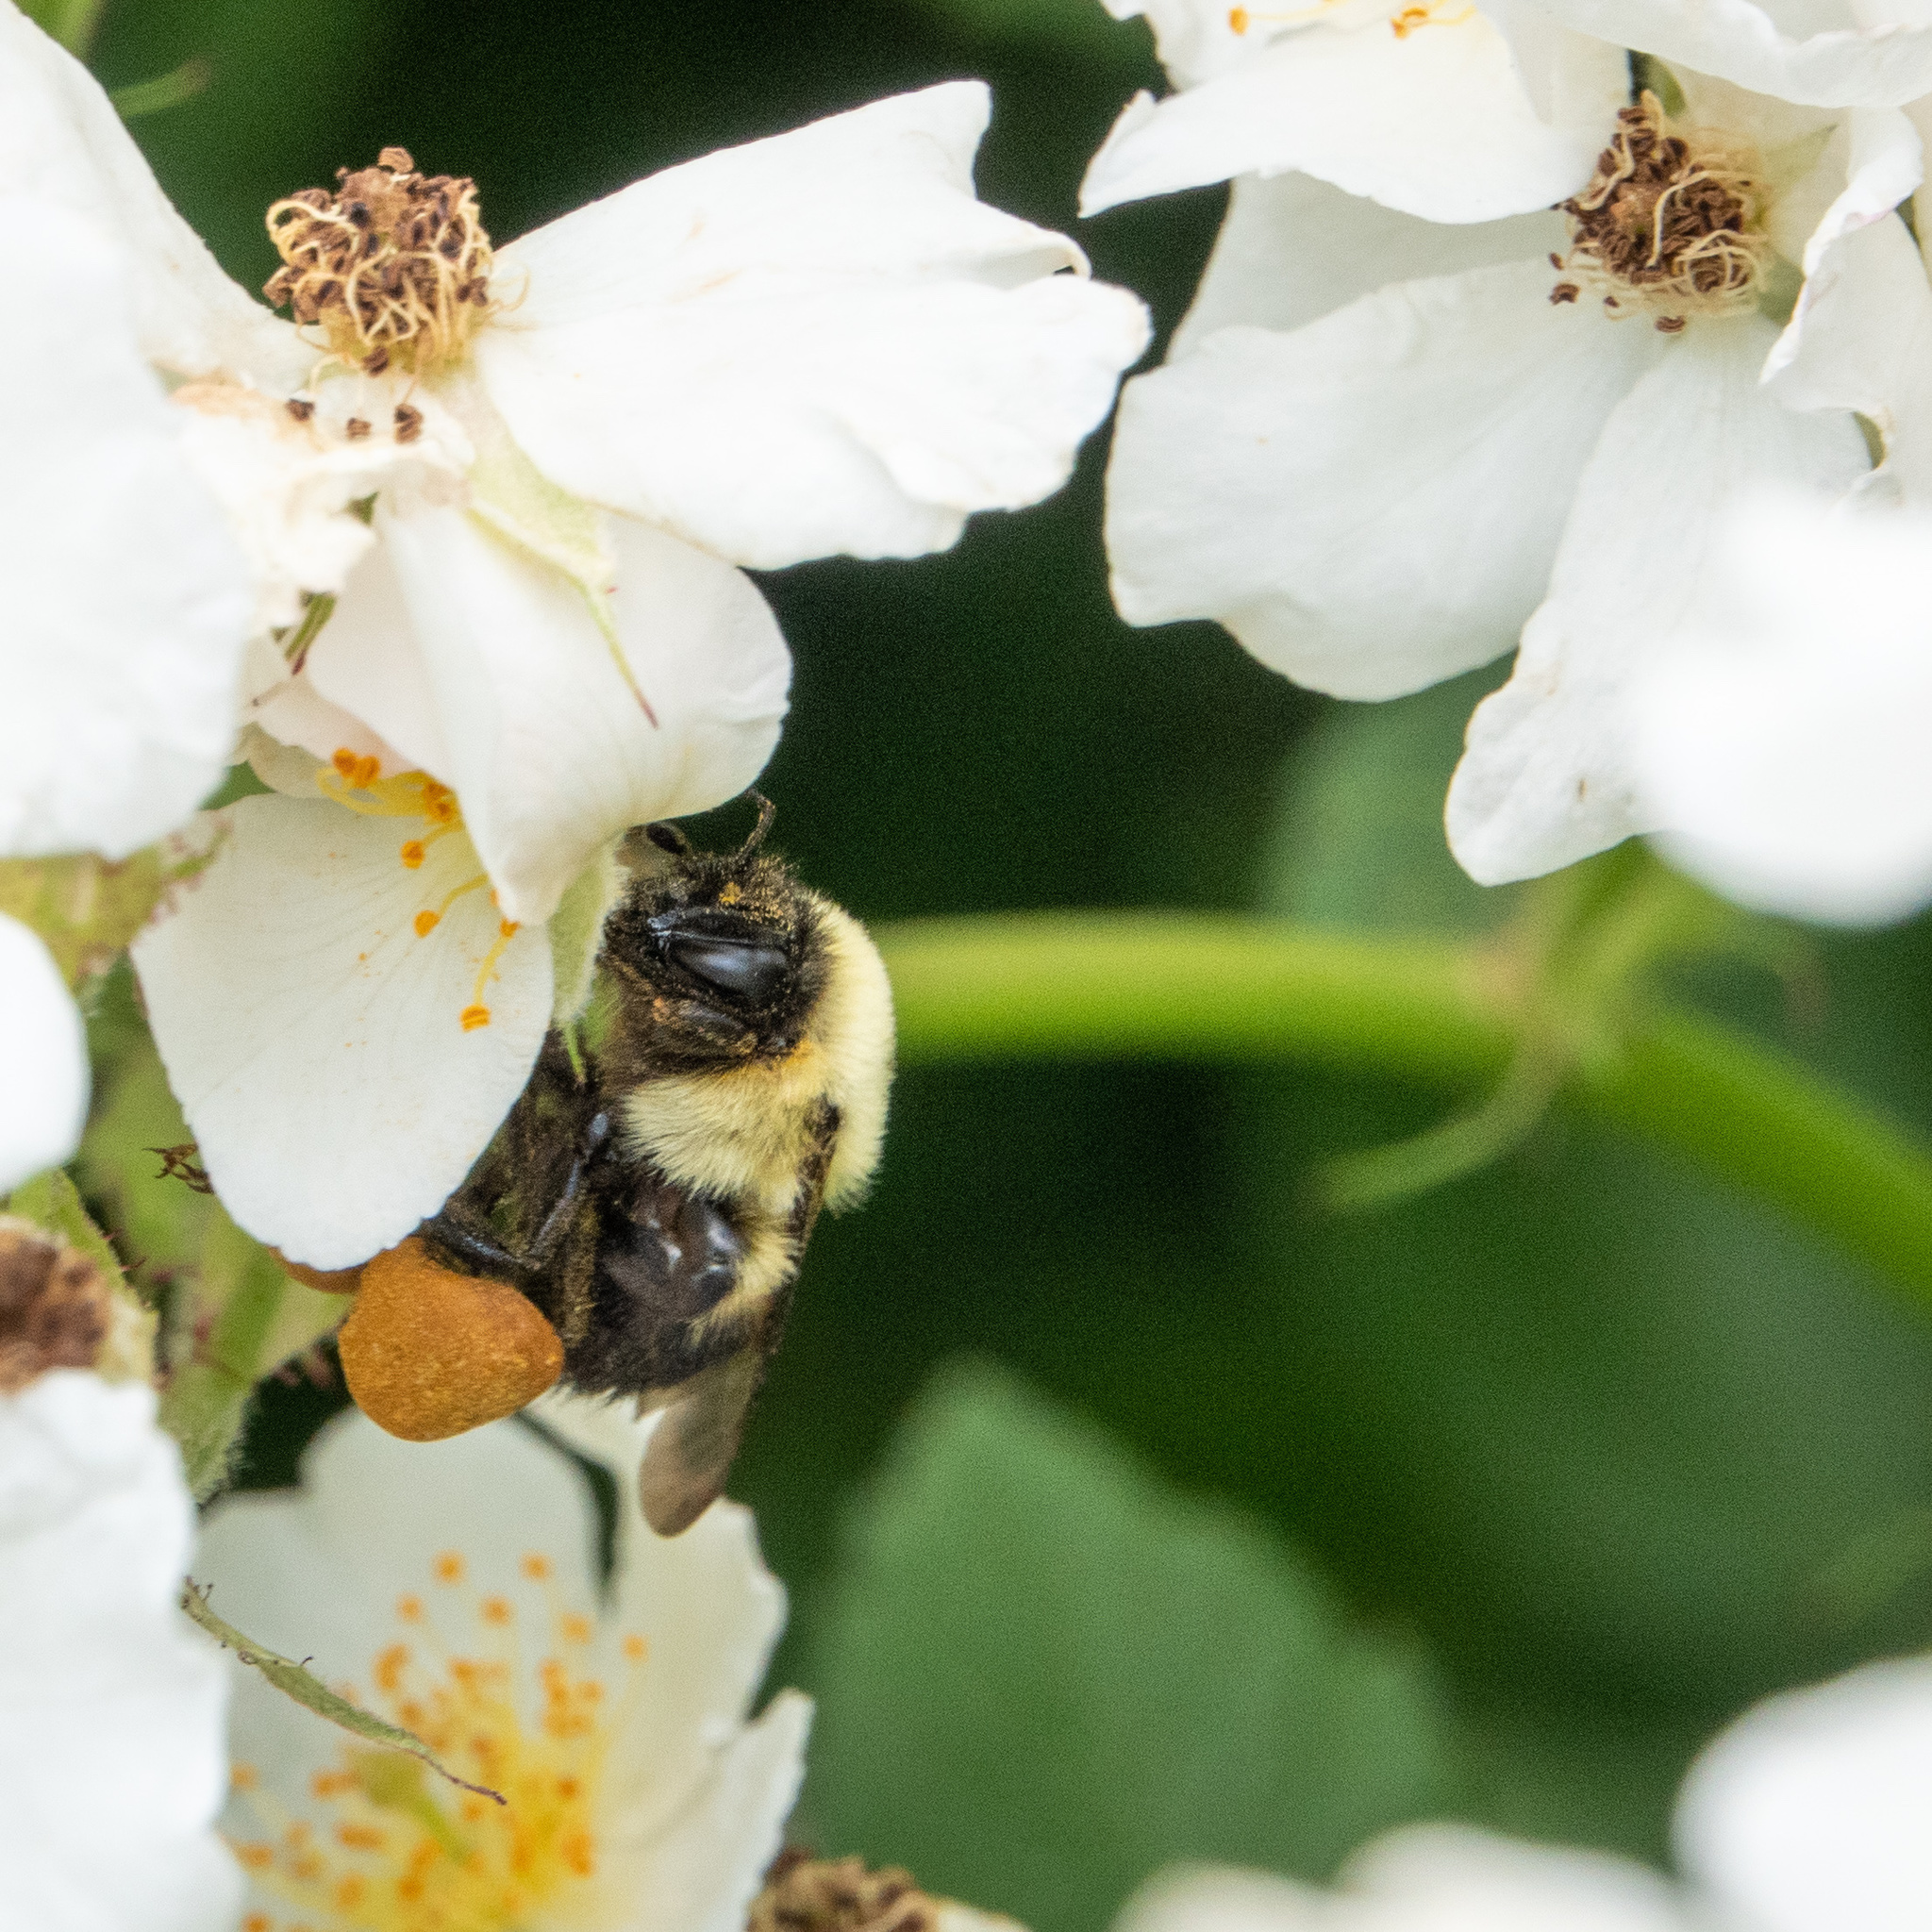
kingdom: Animalia
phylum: Arthropoda
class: Insecta
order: Hymenoptera
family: Apidae
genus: Bombus
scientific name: Bombus griseocollis
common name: Brown-belted bumble bee
